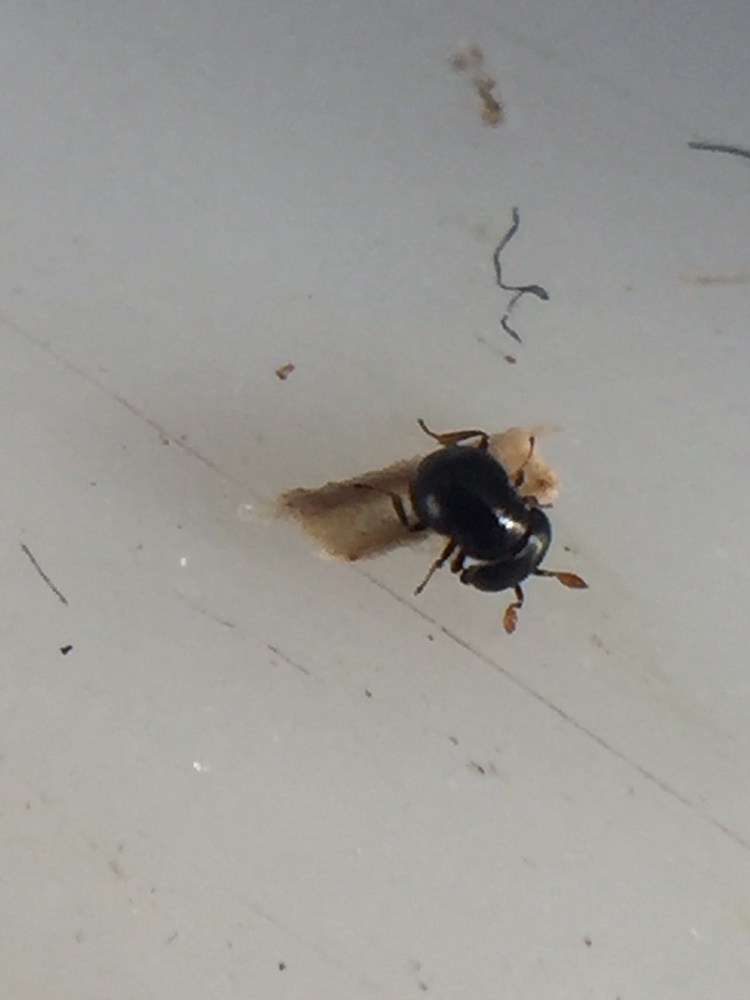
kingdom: Animalia
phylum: Arthropoda
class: Insecta
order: Hymenoptera
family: Scelionidae
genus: Baeus
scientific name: Baeus leai
